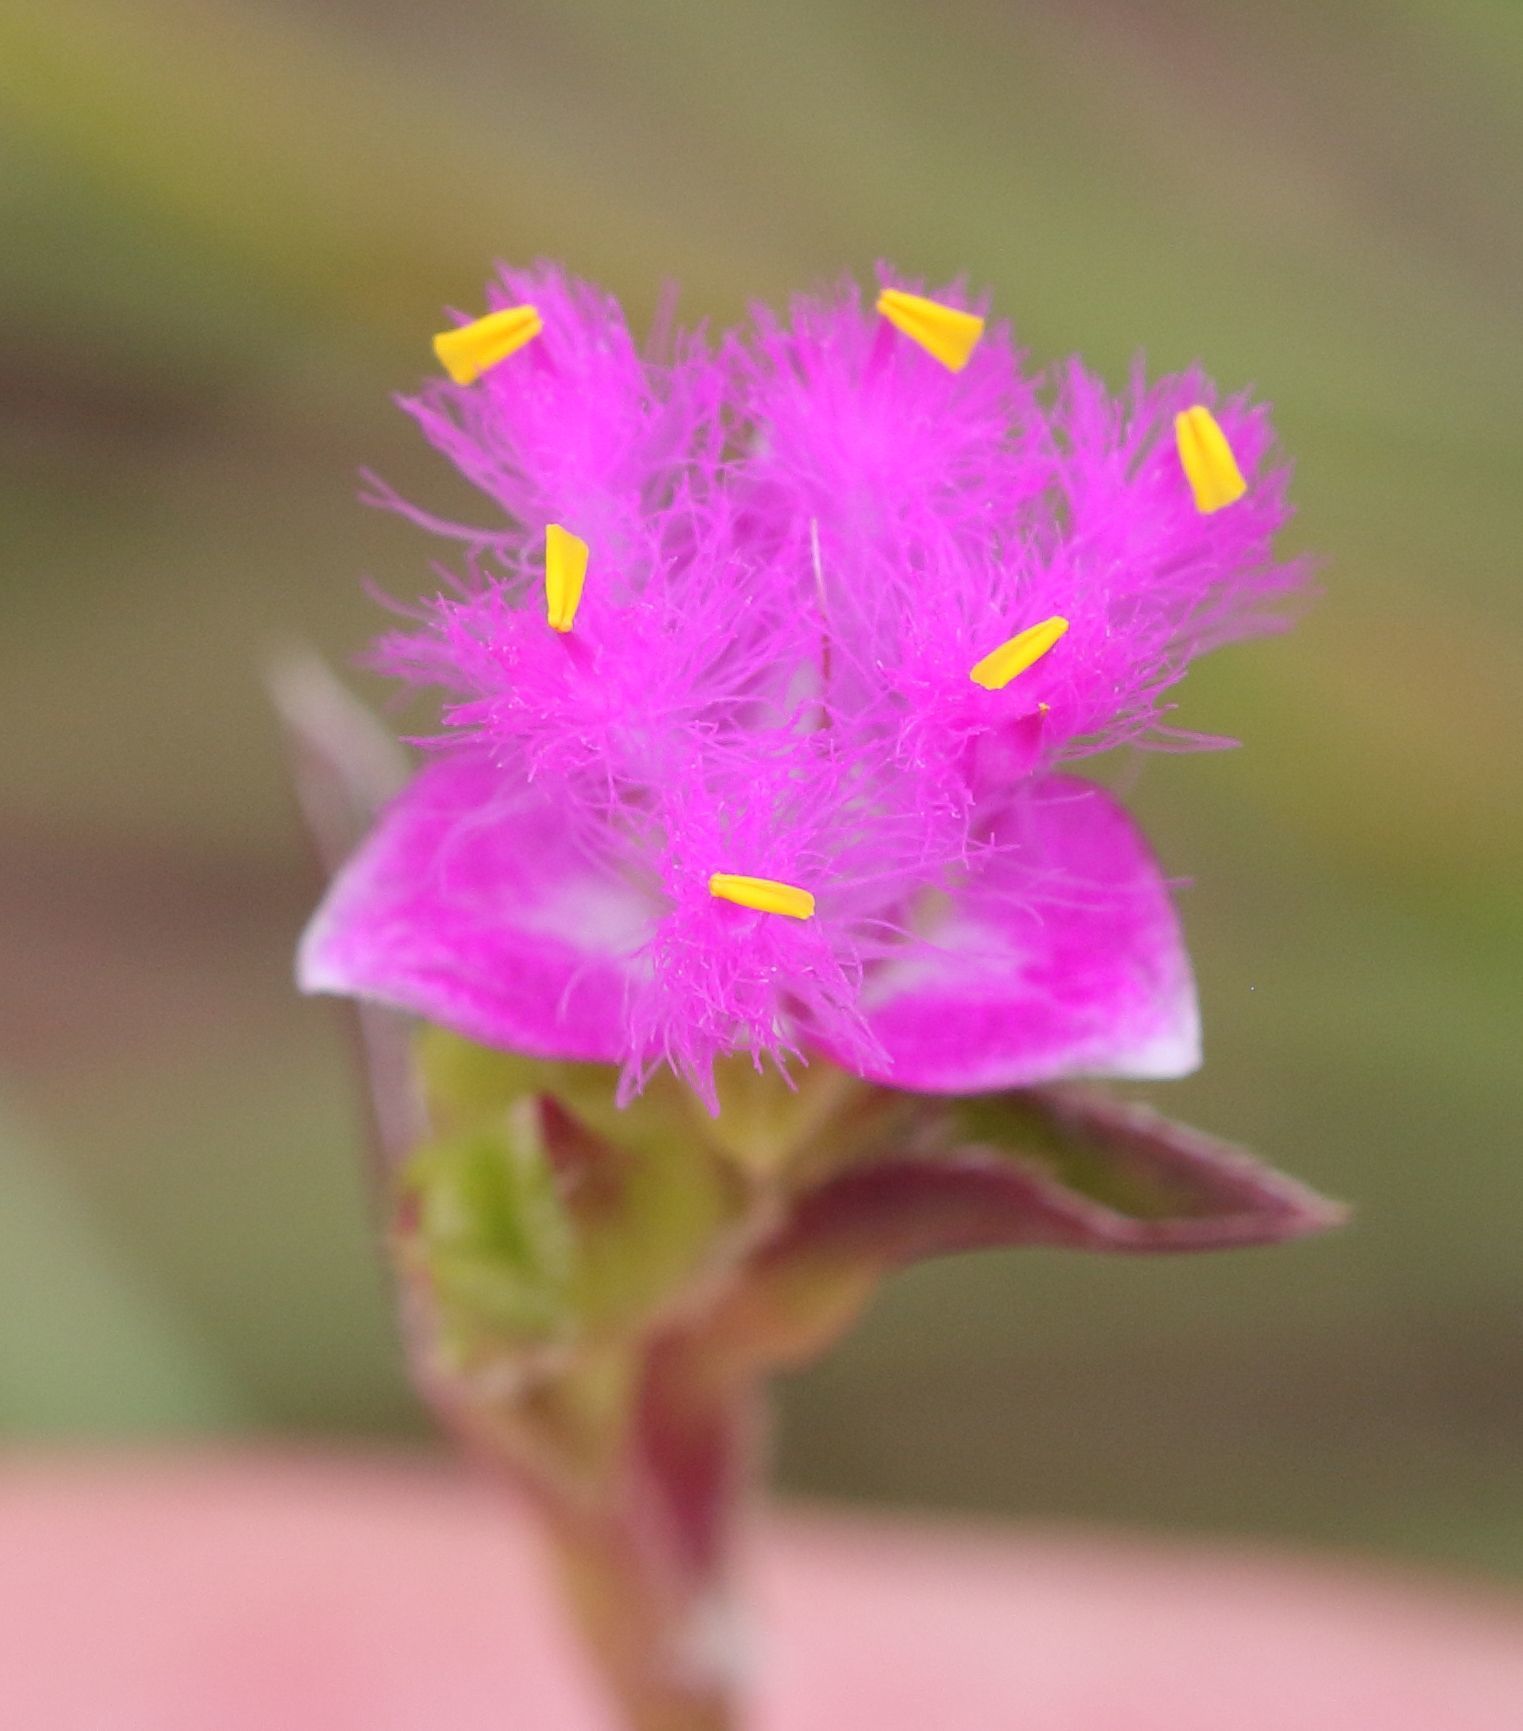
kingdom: Plantae
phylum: Tracheophyta
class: Liliopsida
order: Commelinales
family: Commelinaceae
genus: Cyanotis
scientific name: Cyanotis speciosa
